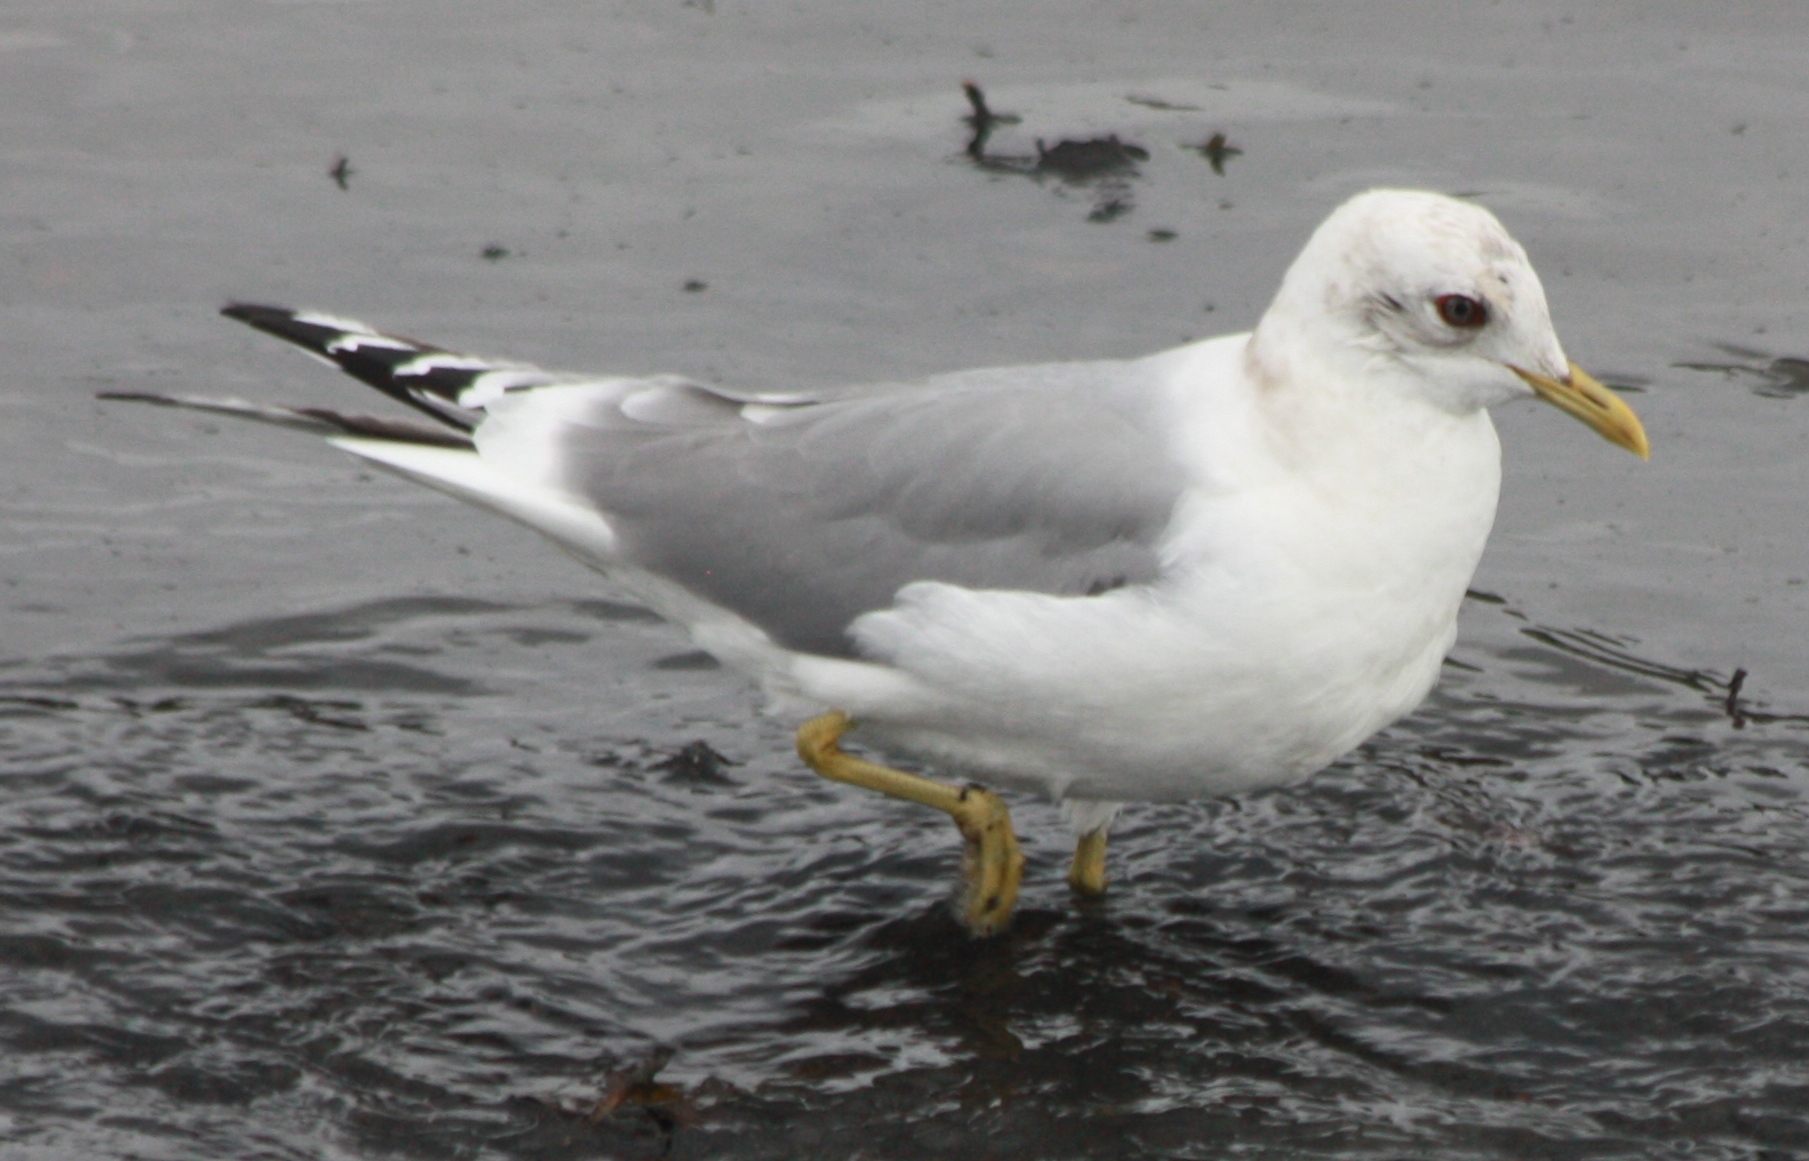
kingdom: Animalia
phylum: Chordata
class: Aves
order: Charadriiformes
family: Laridae
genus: Larus
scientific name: Larus brachyrhynchus
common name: Short-billed gull
